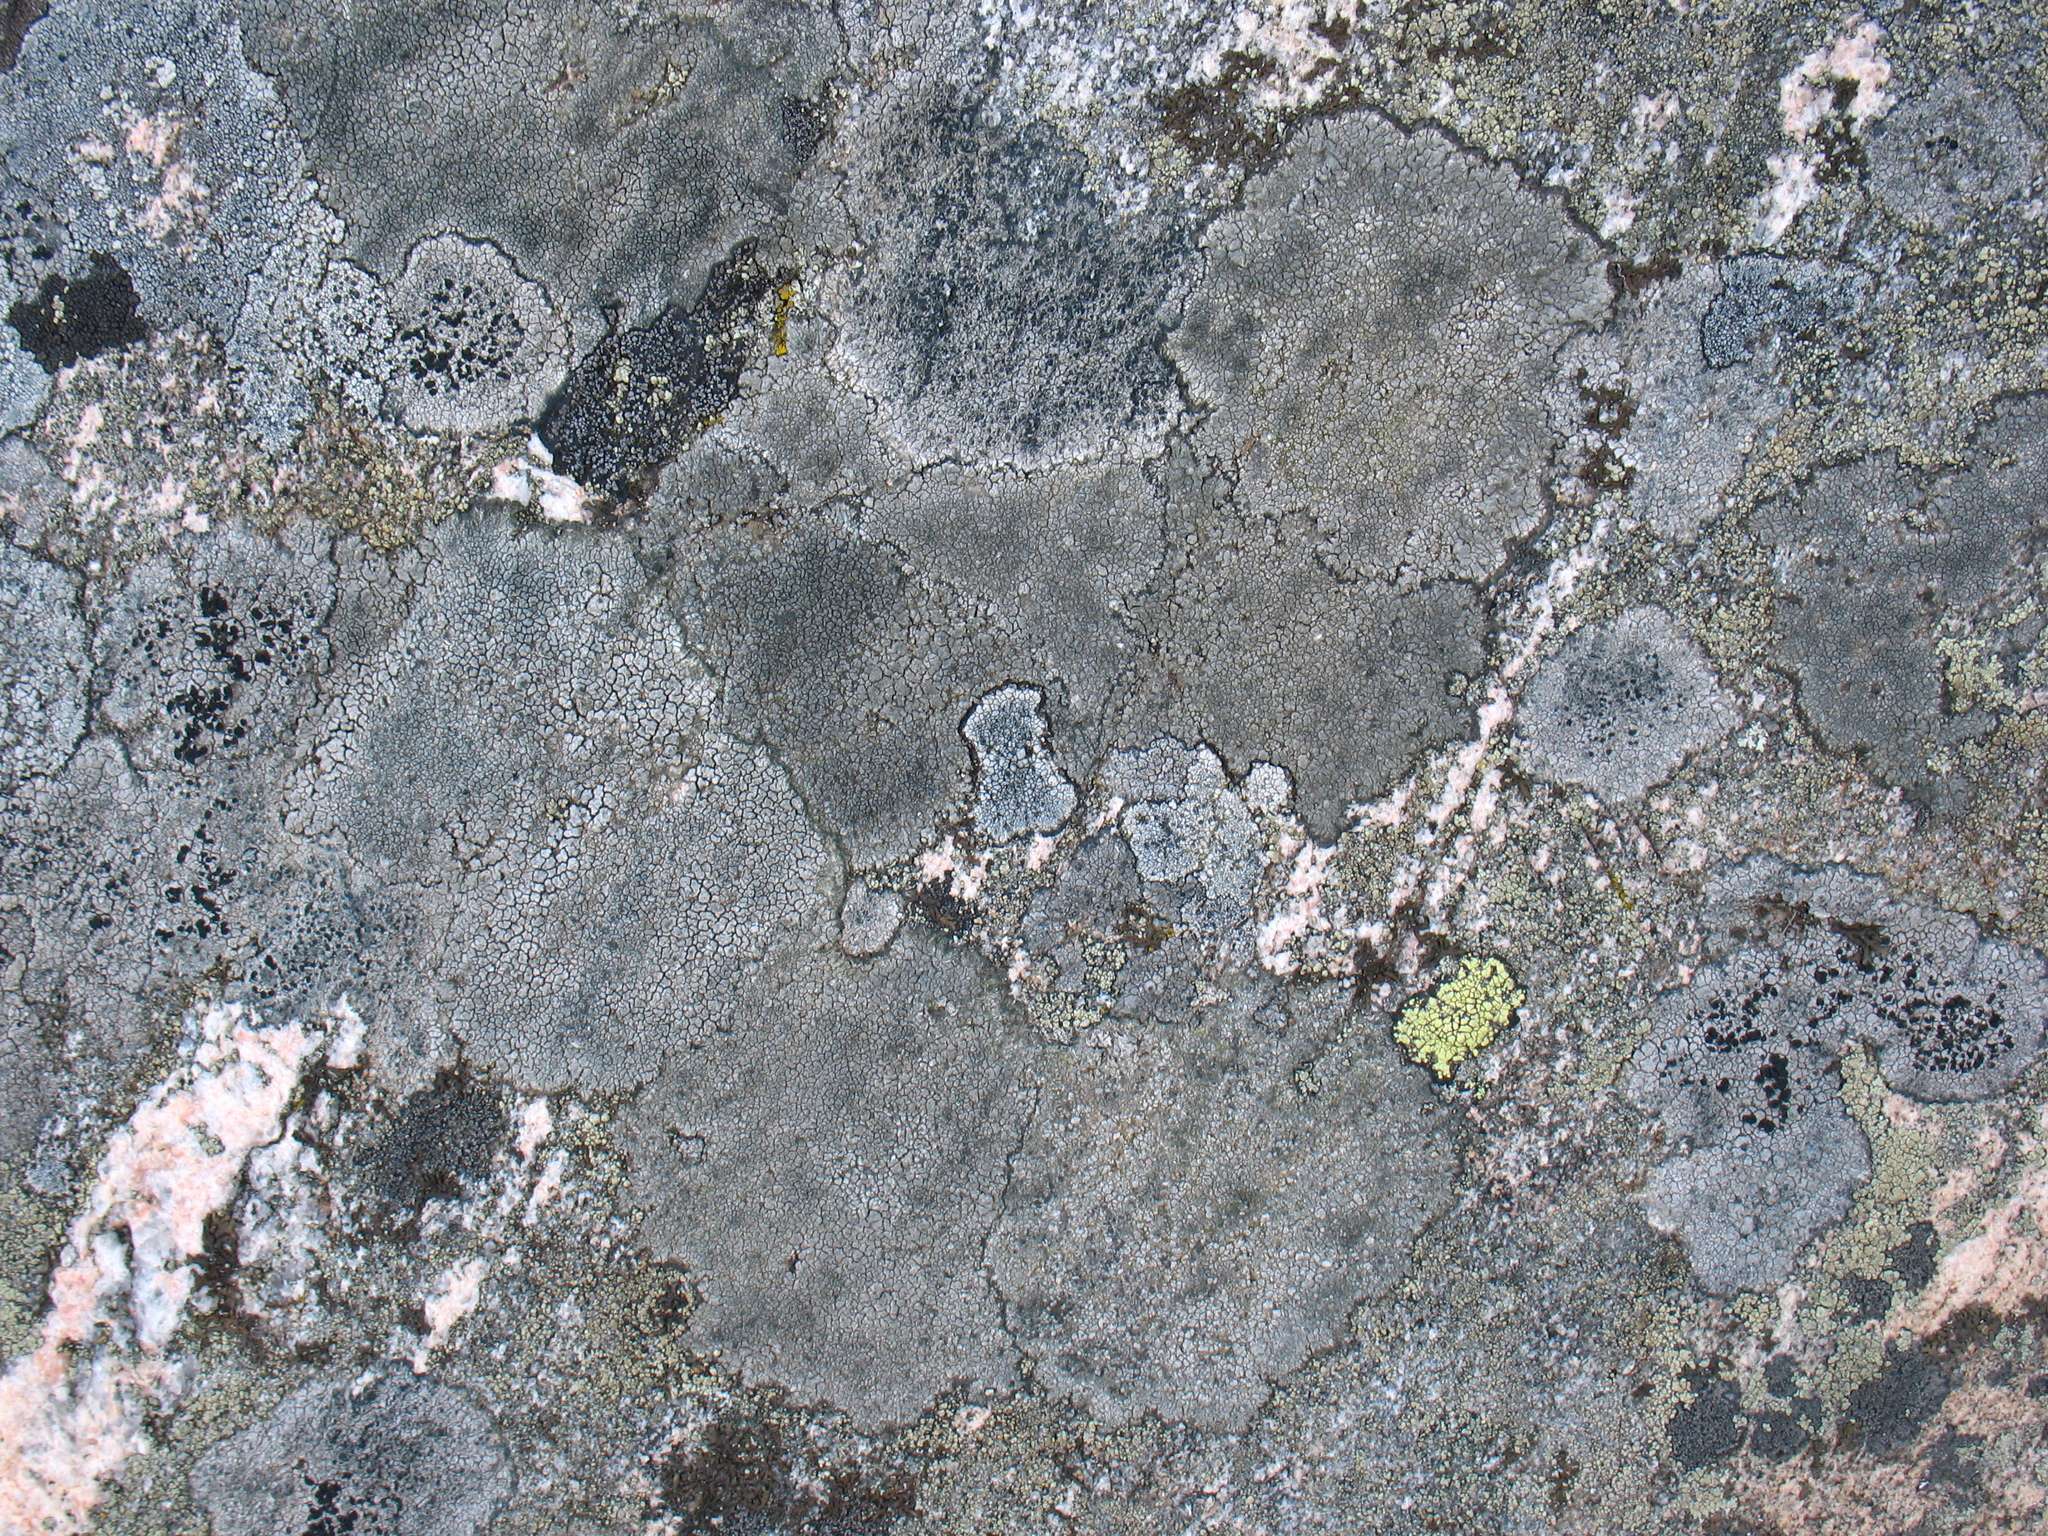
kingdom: Fungi
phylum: Ascomycota
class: Lecanoromycetes
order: Rhizocarpales
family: Rhizocarpaceae
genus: Rhizocarpon
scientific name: Rhizocarpon geographicum
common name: Yellow map lichen
